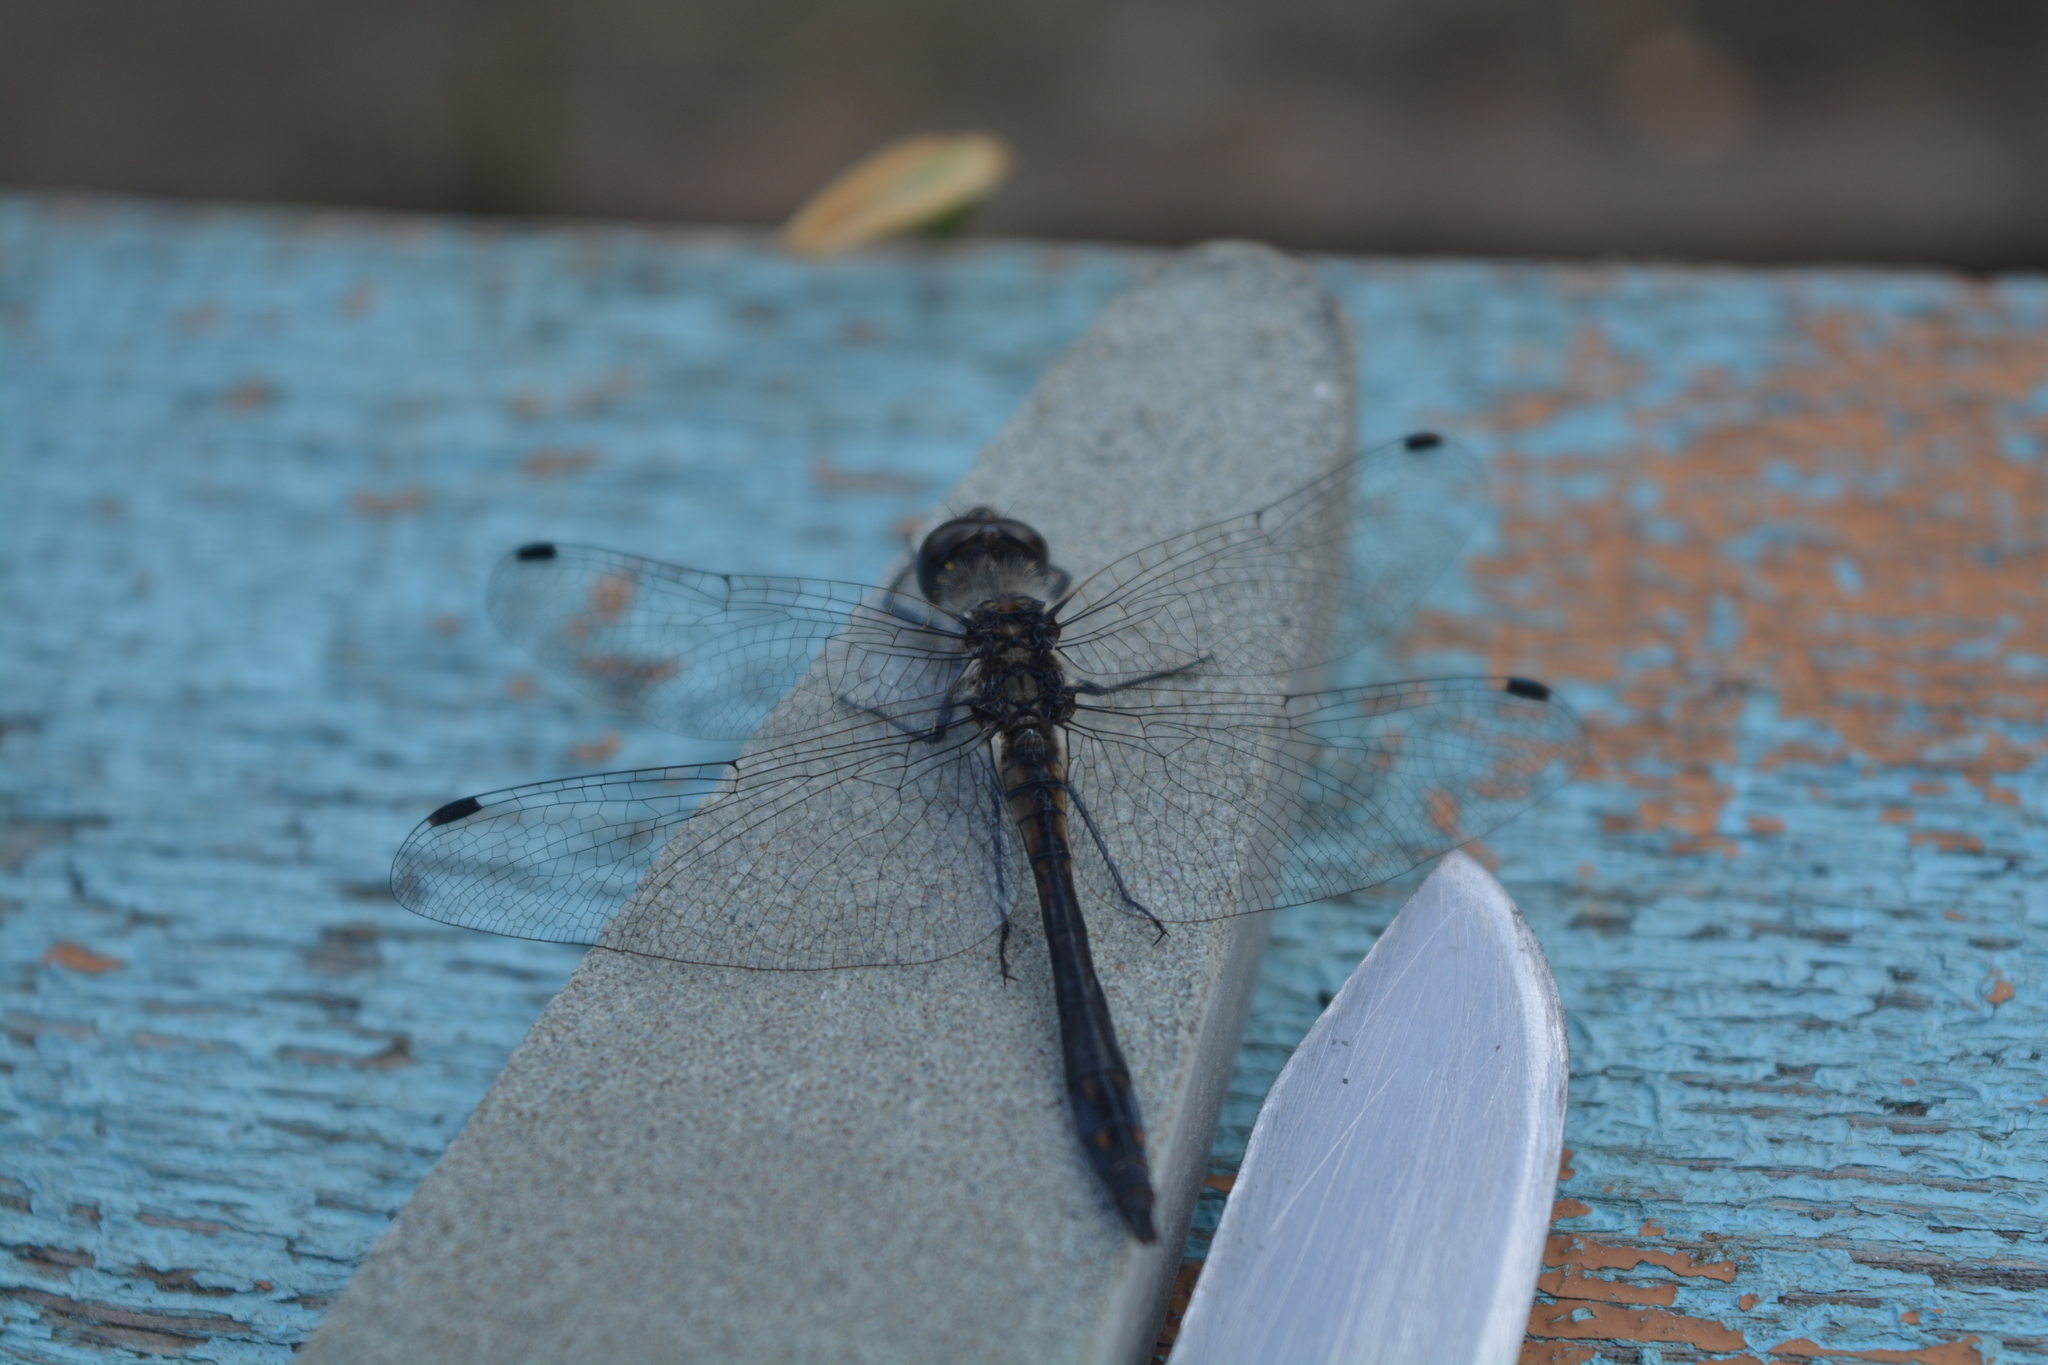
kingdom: Animalia
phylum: Arthropoda
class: Insecta
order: Odonata
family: Libellulidae
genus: Sympetrum
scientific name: Sympetrum danae
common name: Black darter
